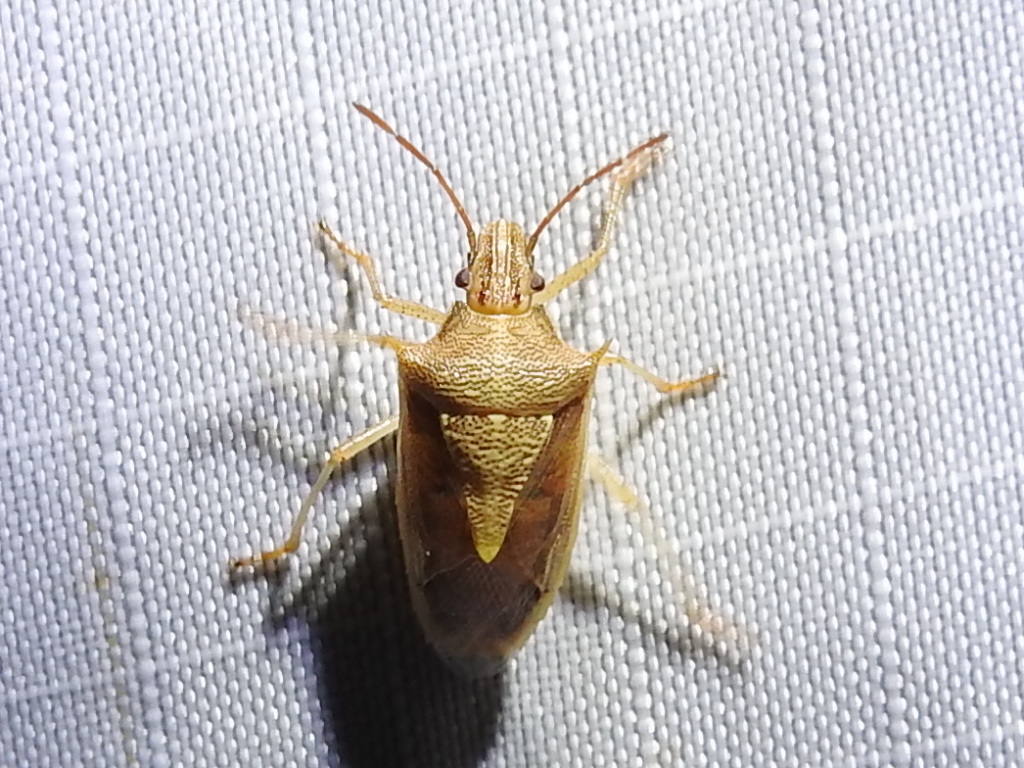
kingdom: Animalia
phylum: Arthropoda
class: Insecta
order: Hemiptera
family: Pentatomidae
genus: Oebalus
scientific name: Oebalus pugnax
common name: Rice stink bug
